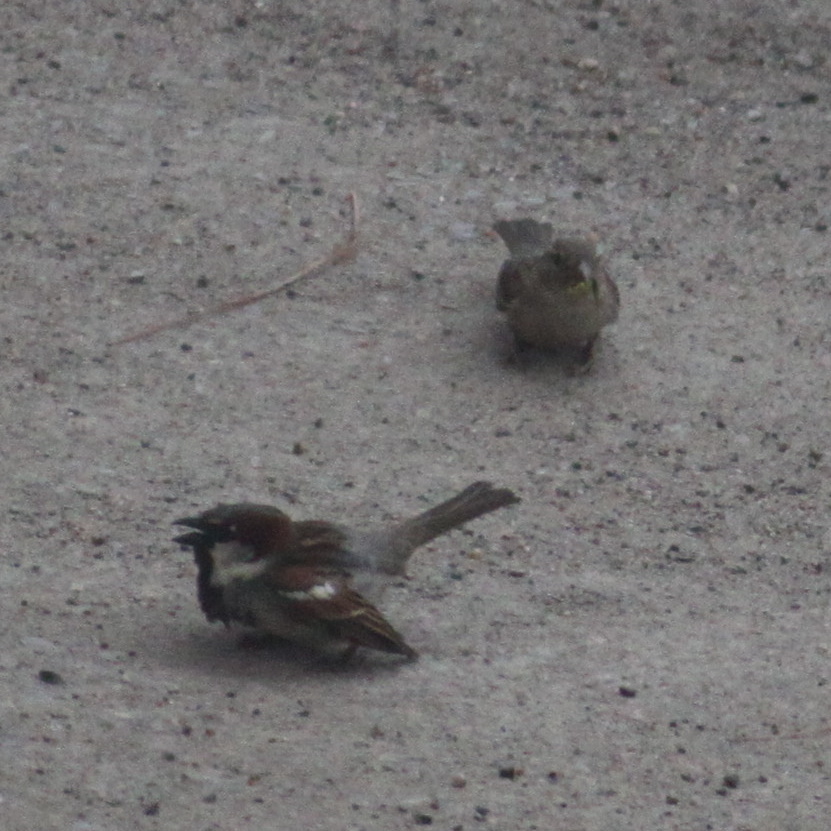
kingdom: Animalia
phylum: Chordata
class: Aves
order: Passeriformes
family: Passeridae
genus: Passer
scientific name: Passer domesticus
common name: House sparrow
